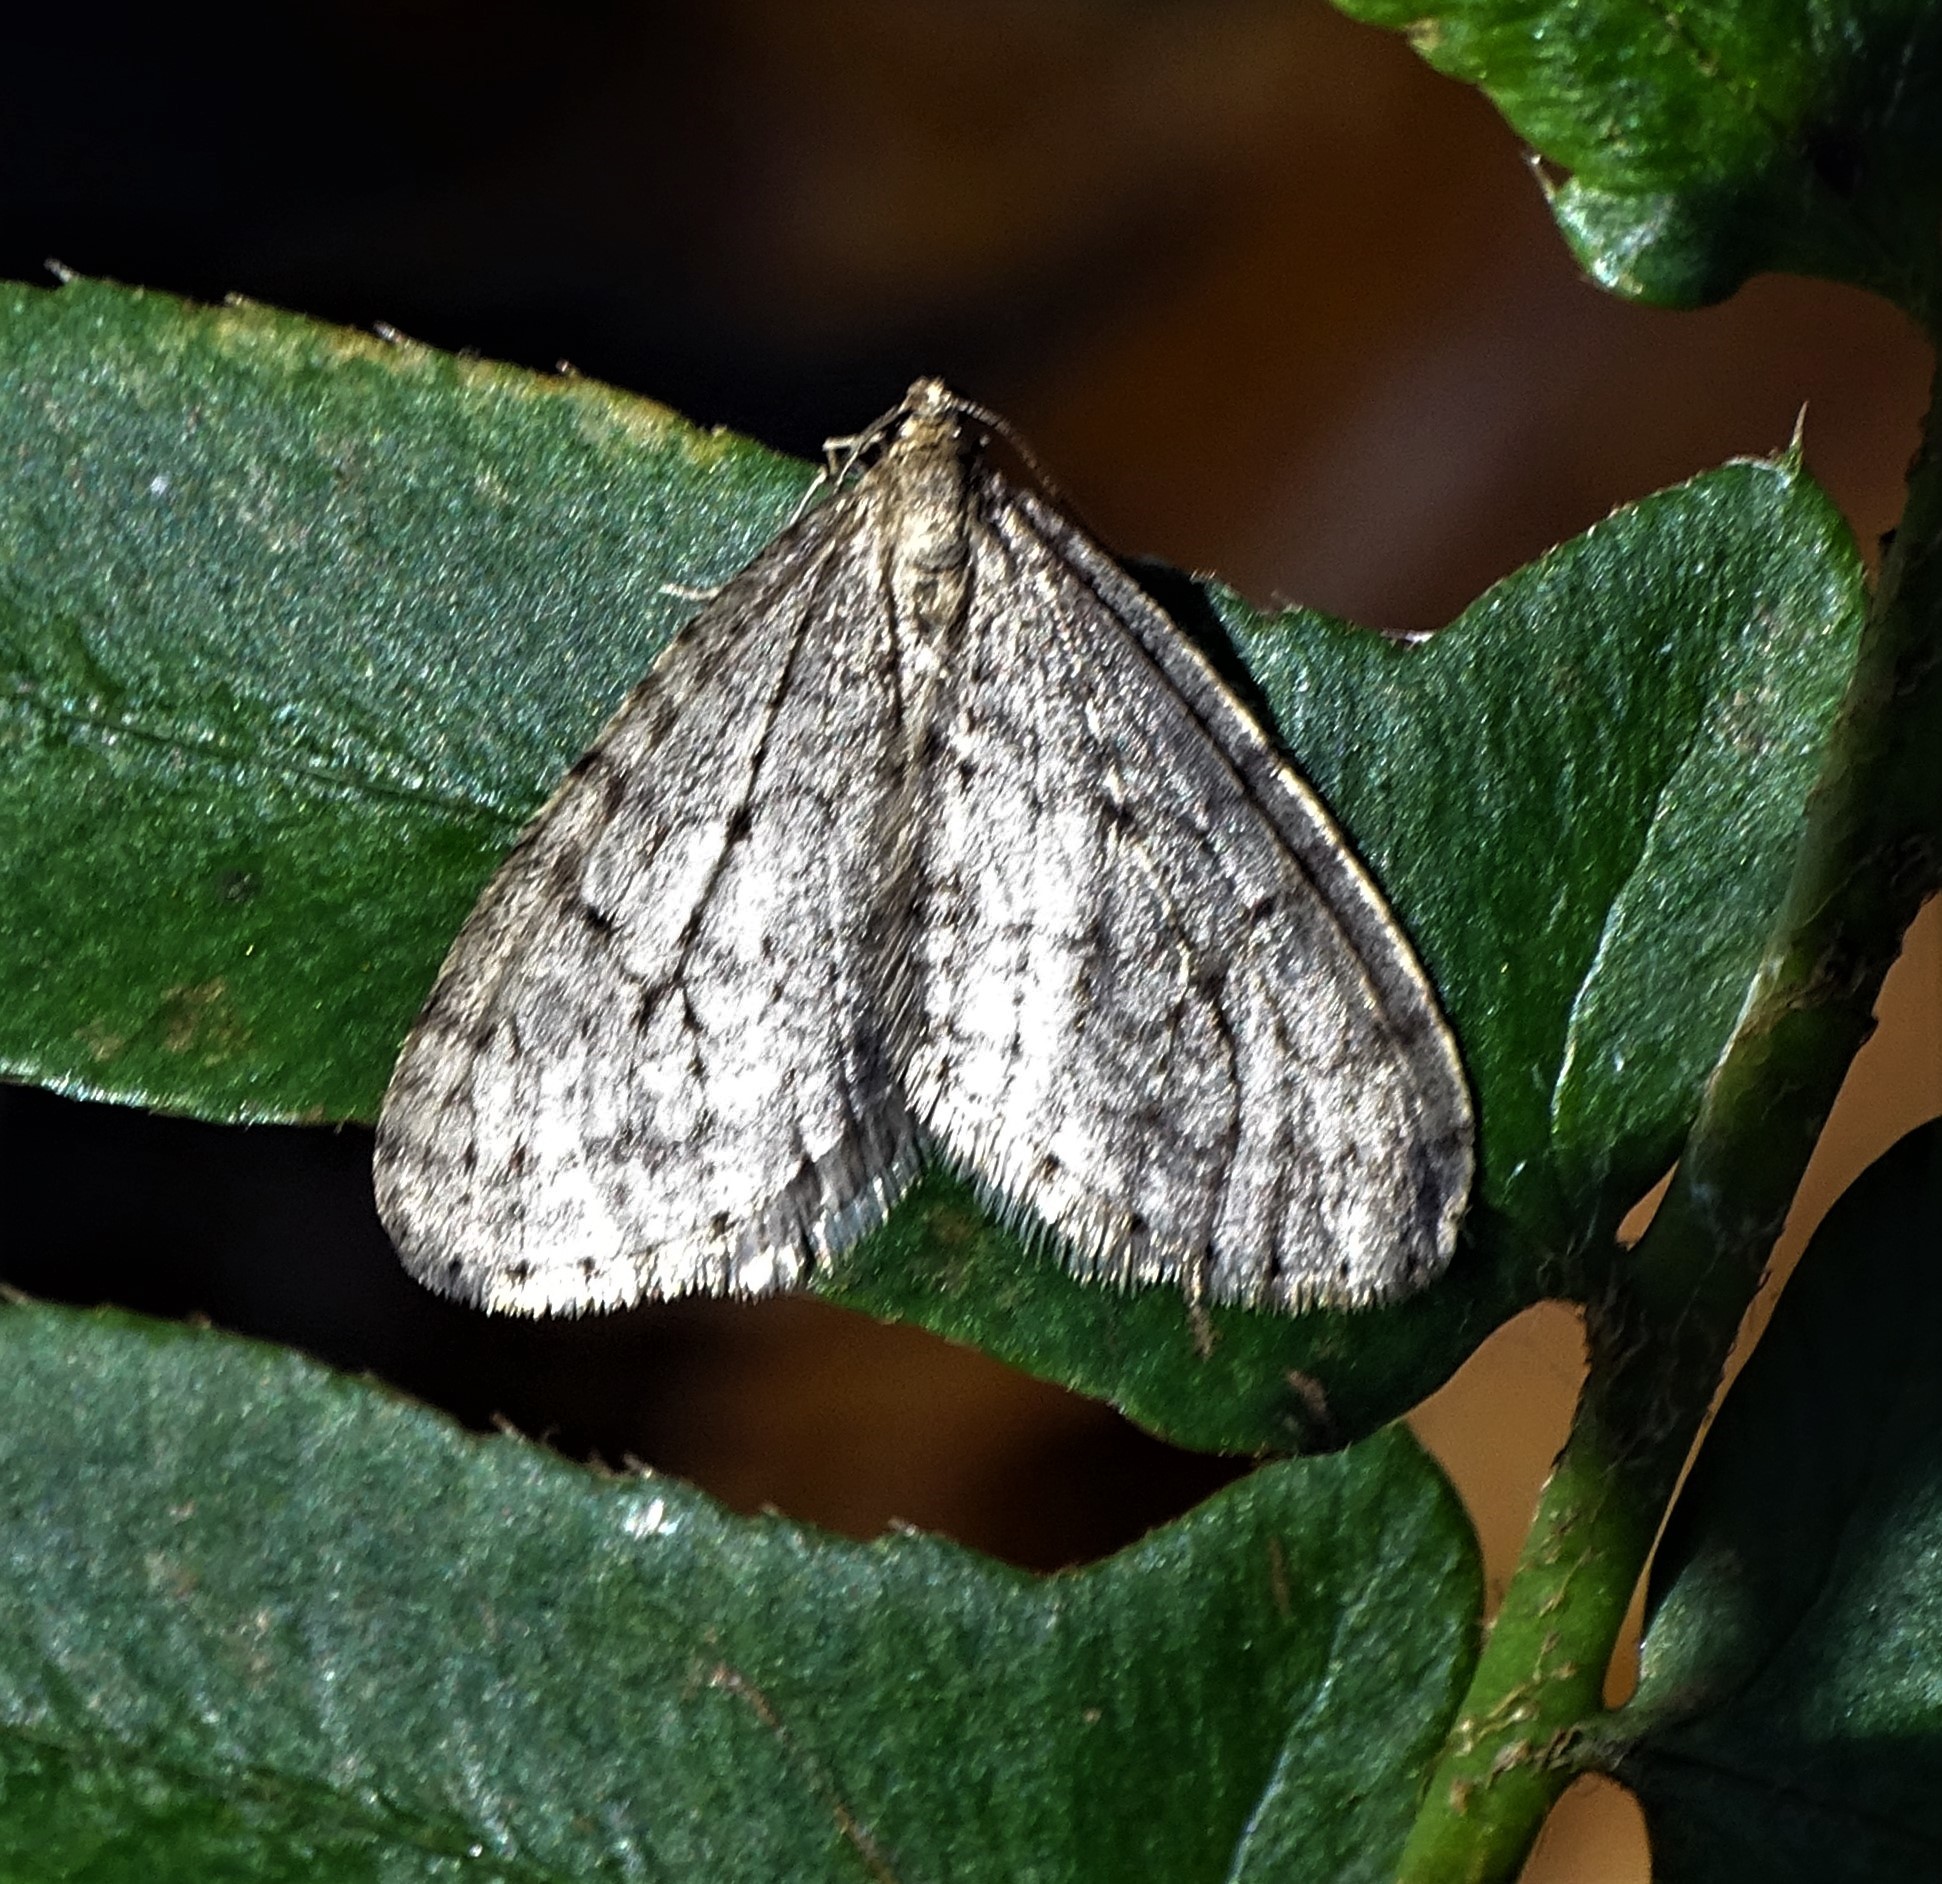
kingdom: Animalia
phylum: Arthropoda
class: Insecta
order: Lepidoptera
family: Geometridae
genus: Operophtera
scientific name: Operophtera bruceata
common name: Bruce spanworm
